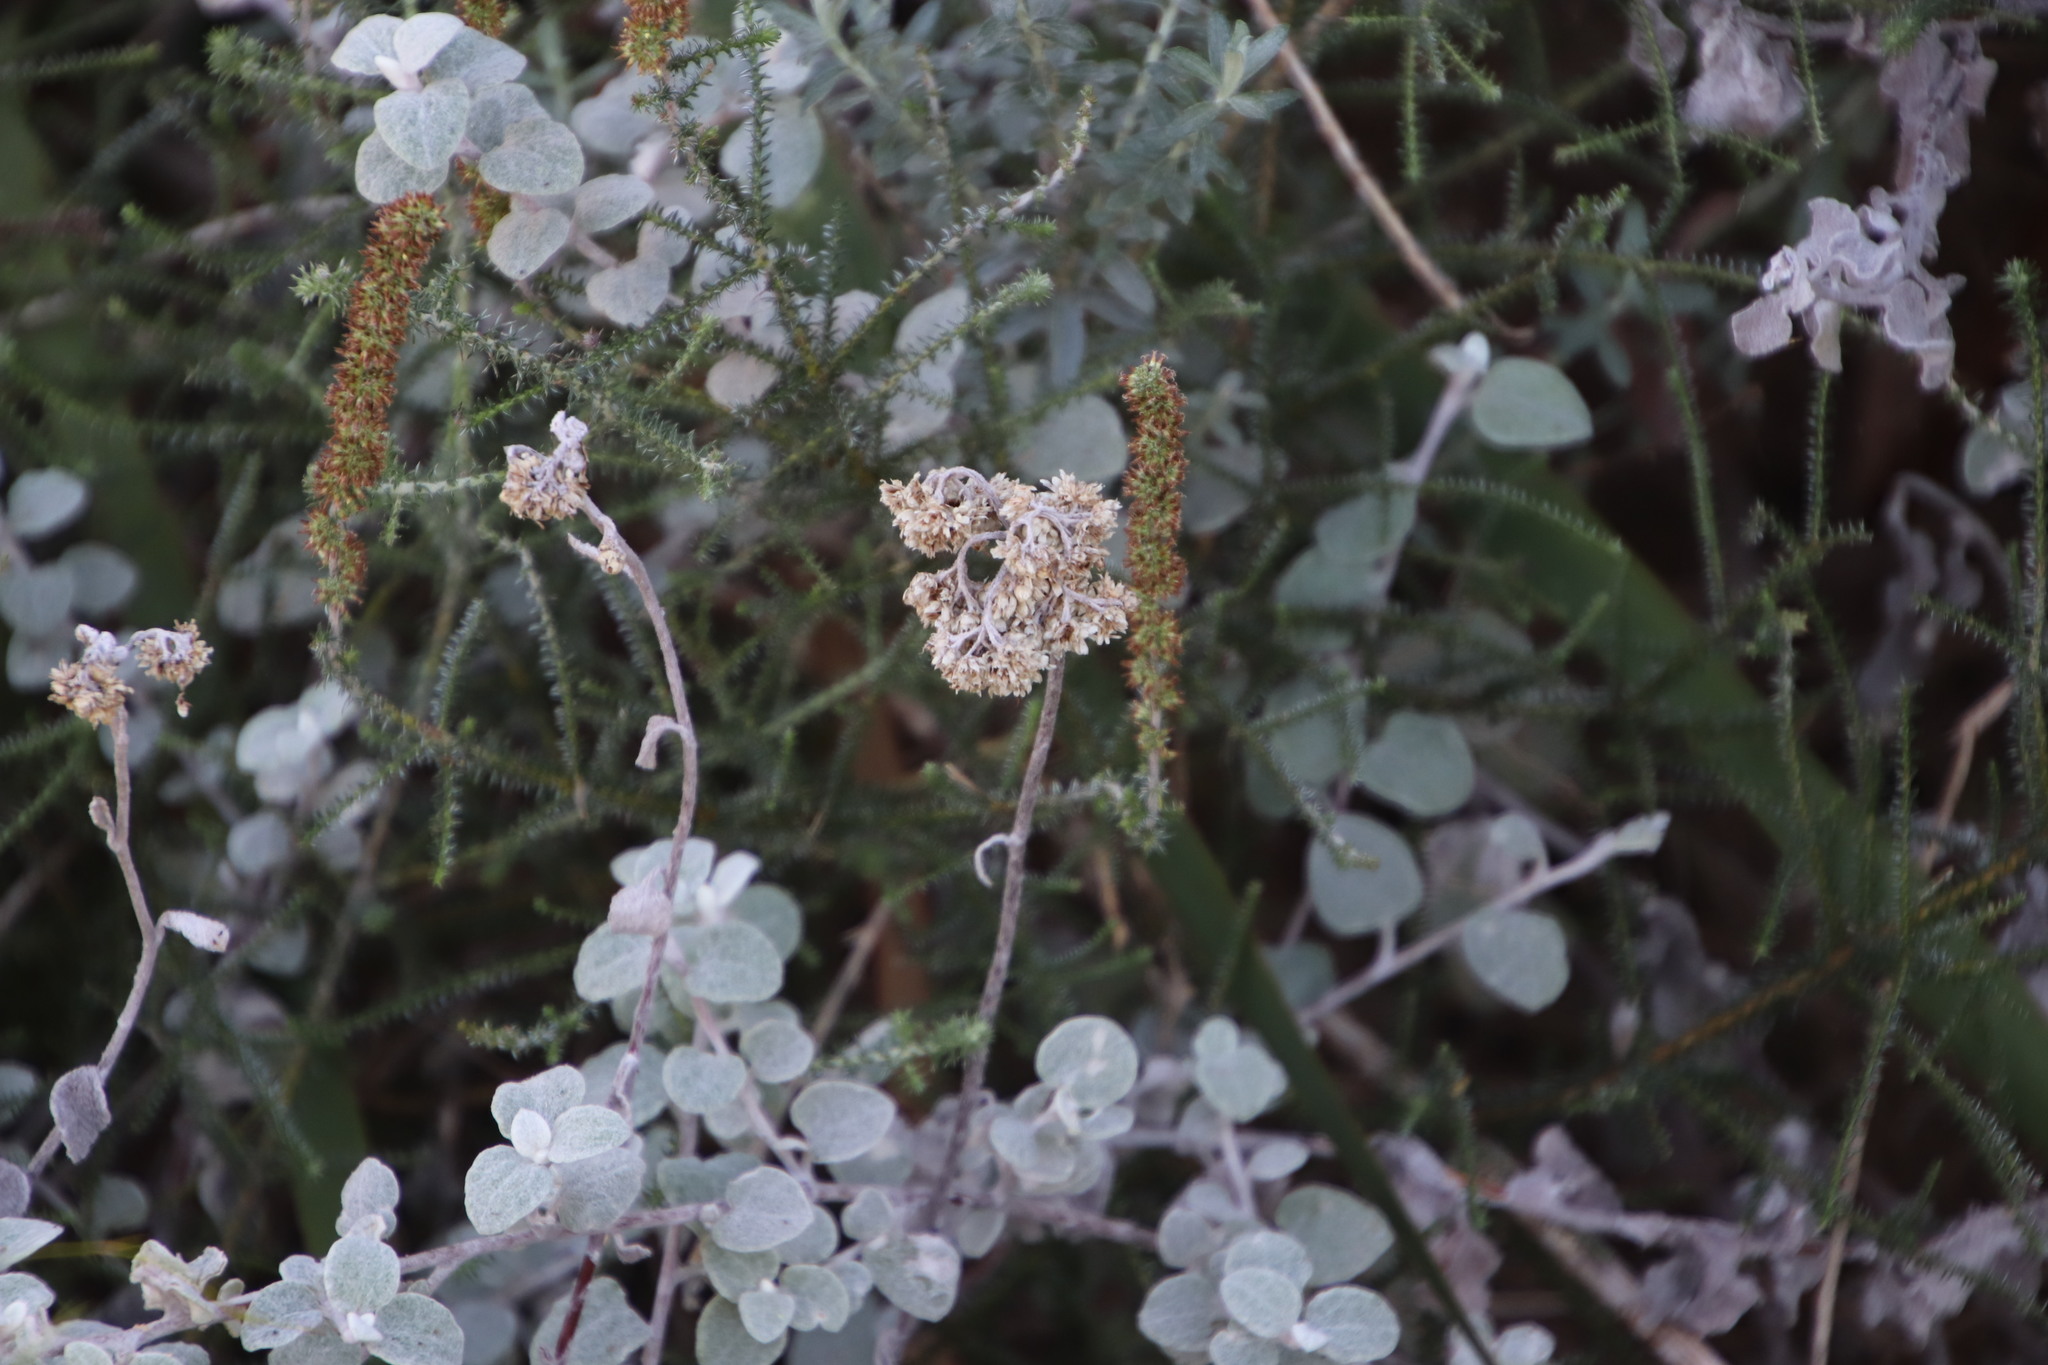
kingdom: Plantae
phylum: Tracheophyta
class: Magnoliopsida
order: Asterales
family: Asteraceae
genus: Helichrysum
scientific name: Helichrysum petiolare
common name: Licorice-plant
